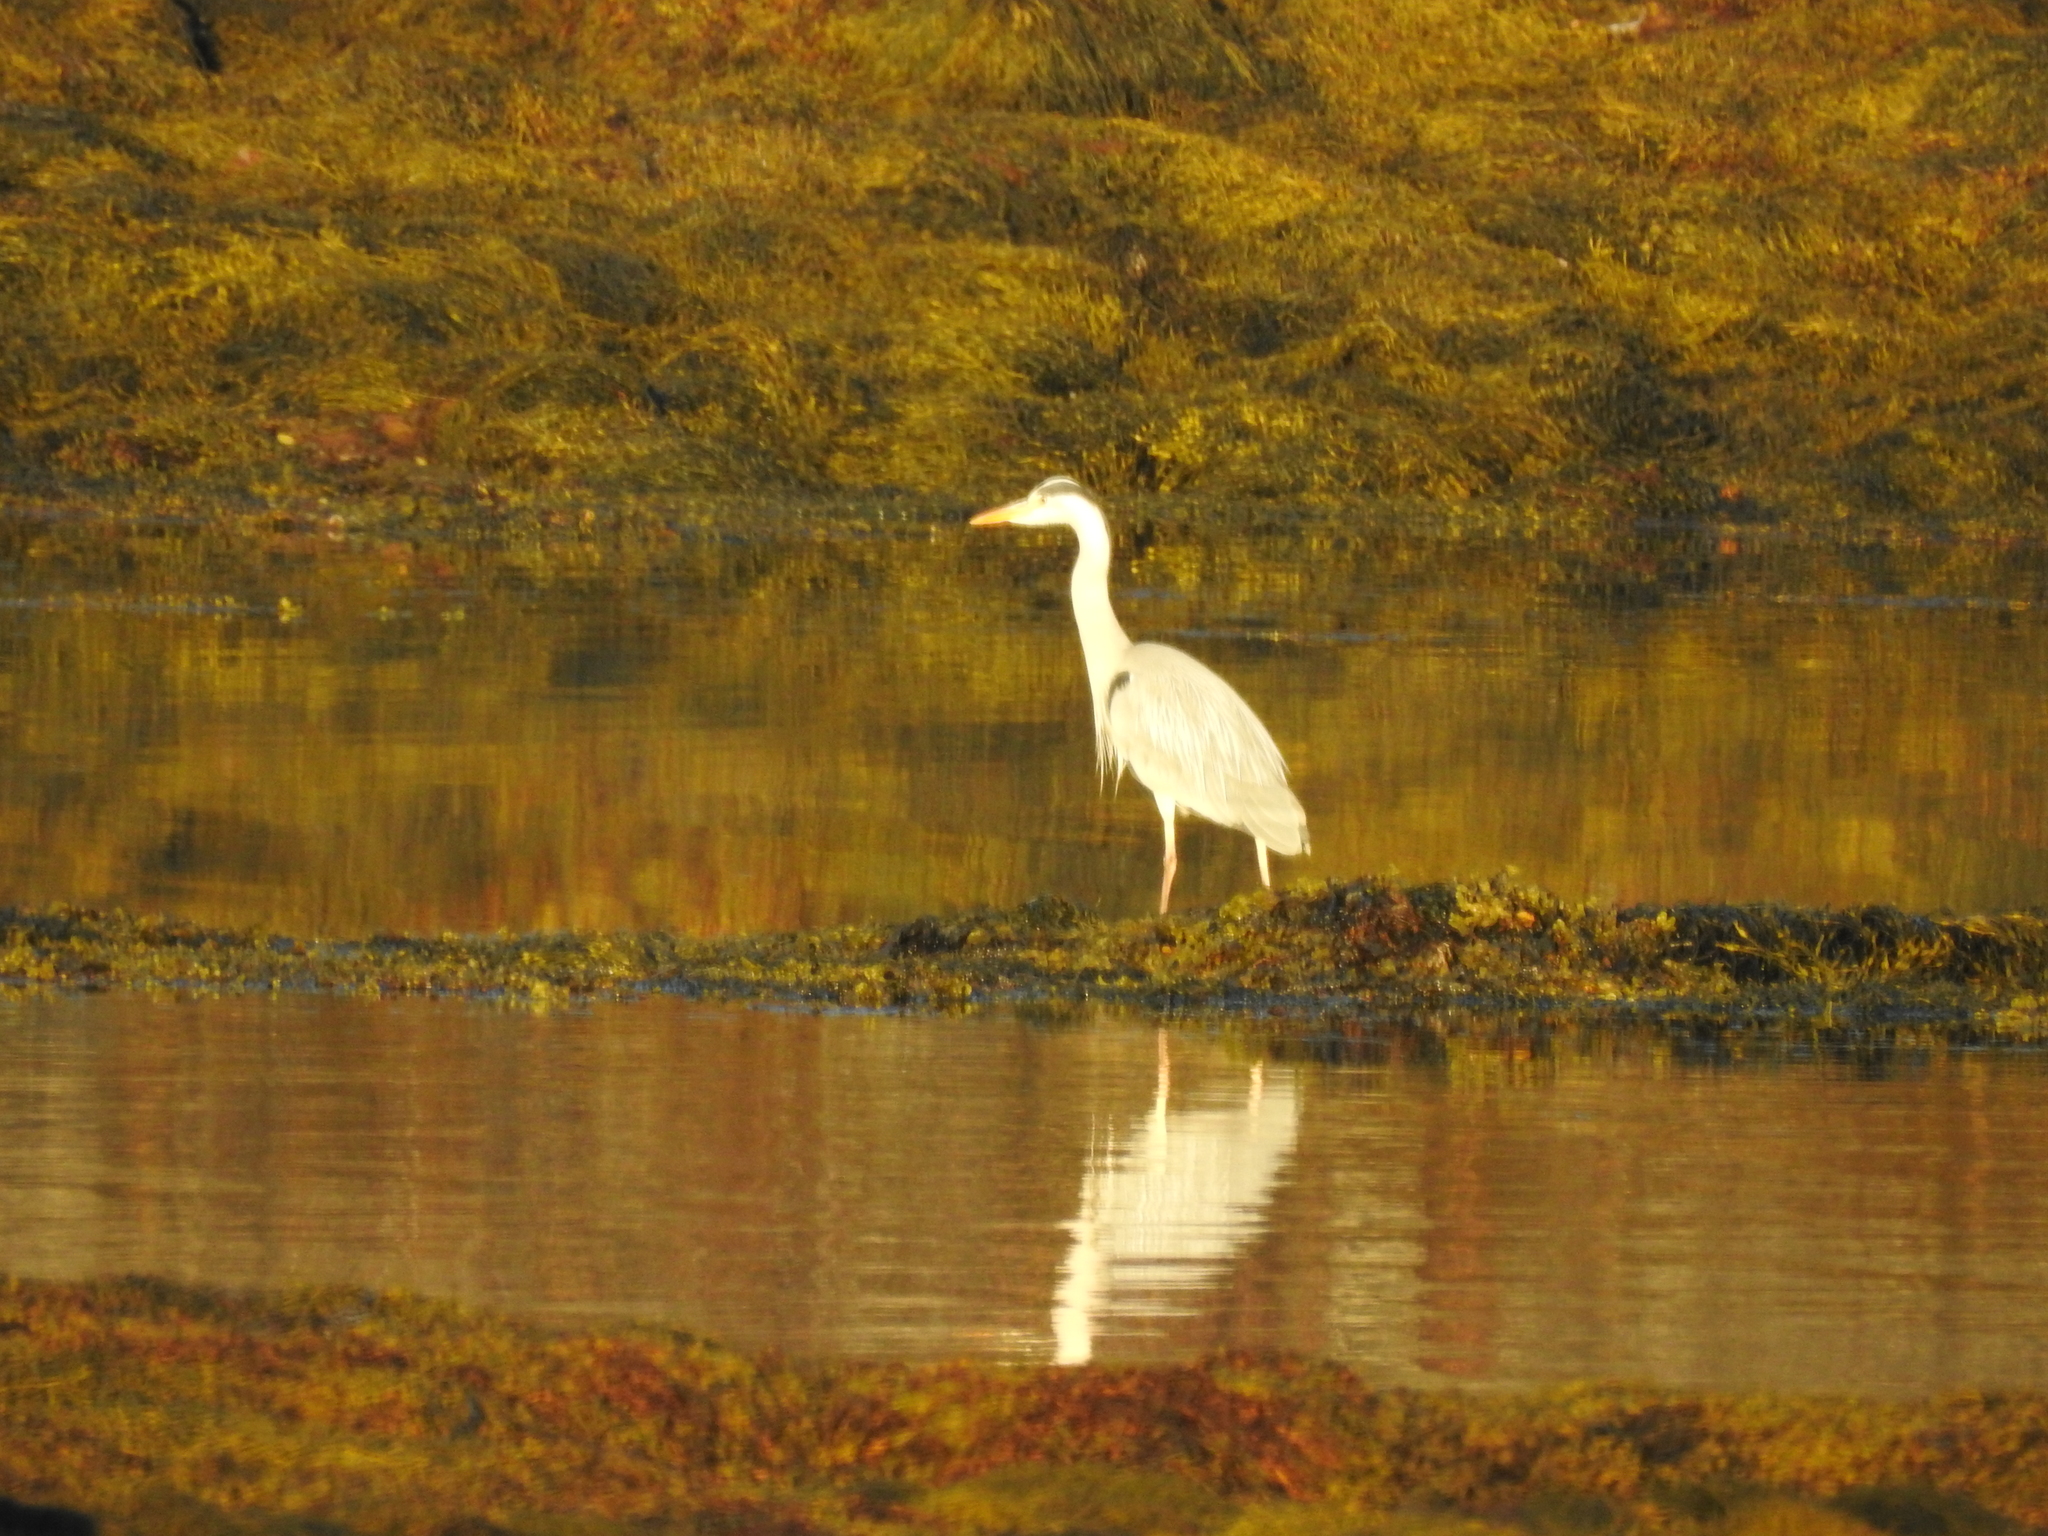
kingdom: Animalia
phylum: Chordata
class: Aves
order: Pelecaniformes
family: Ardeidae
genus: Ardea
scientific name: Ardea cinerea
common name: Grey heron
